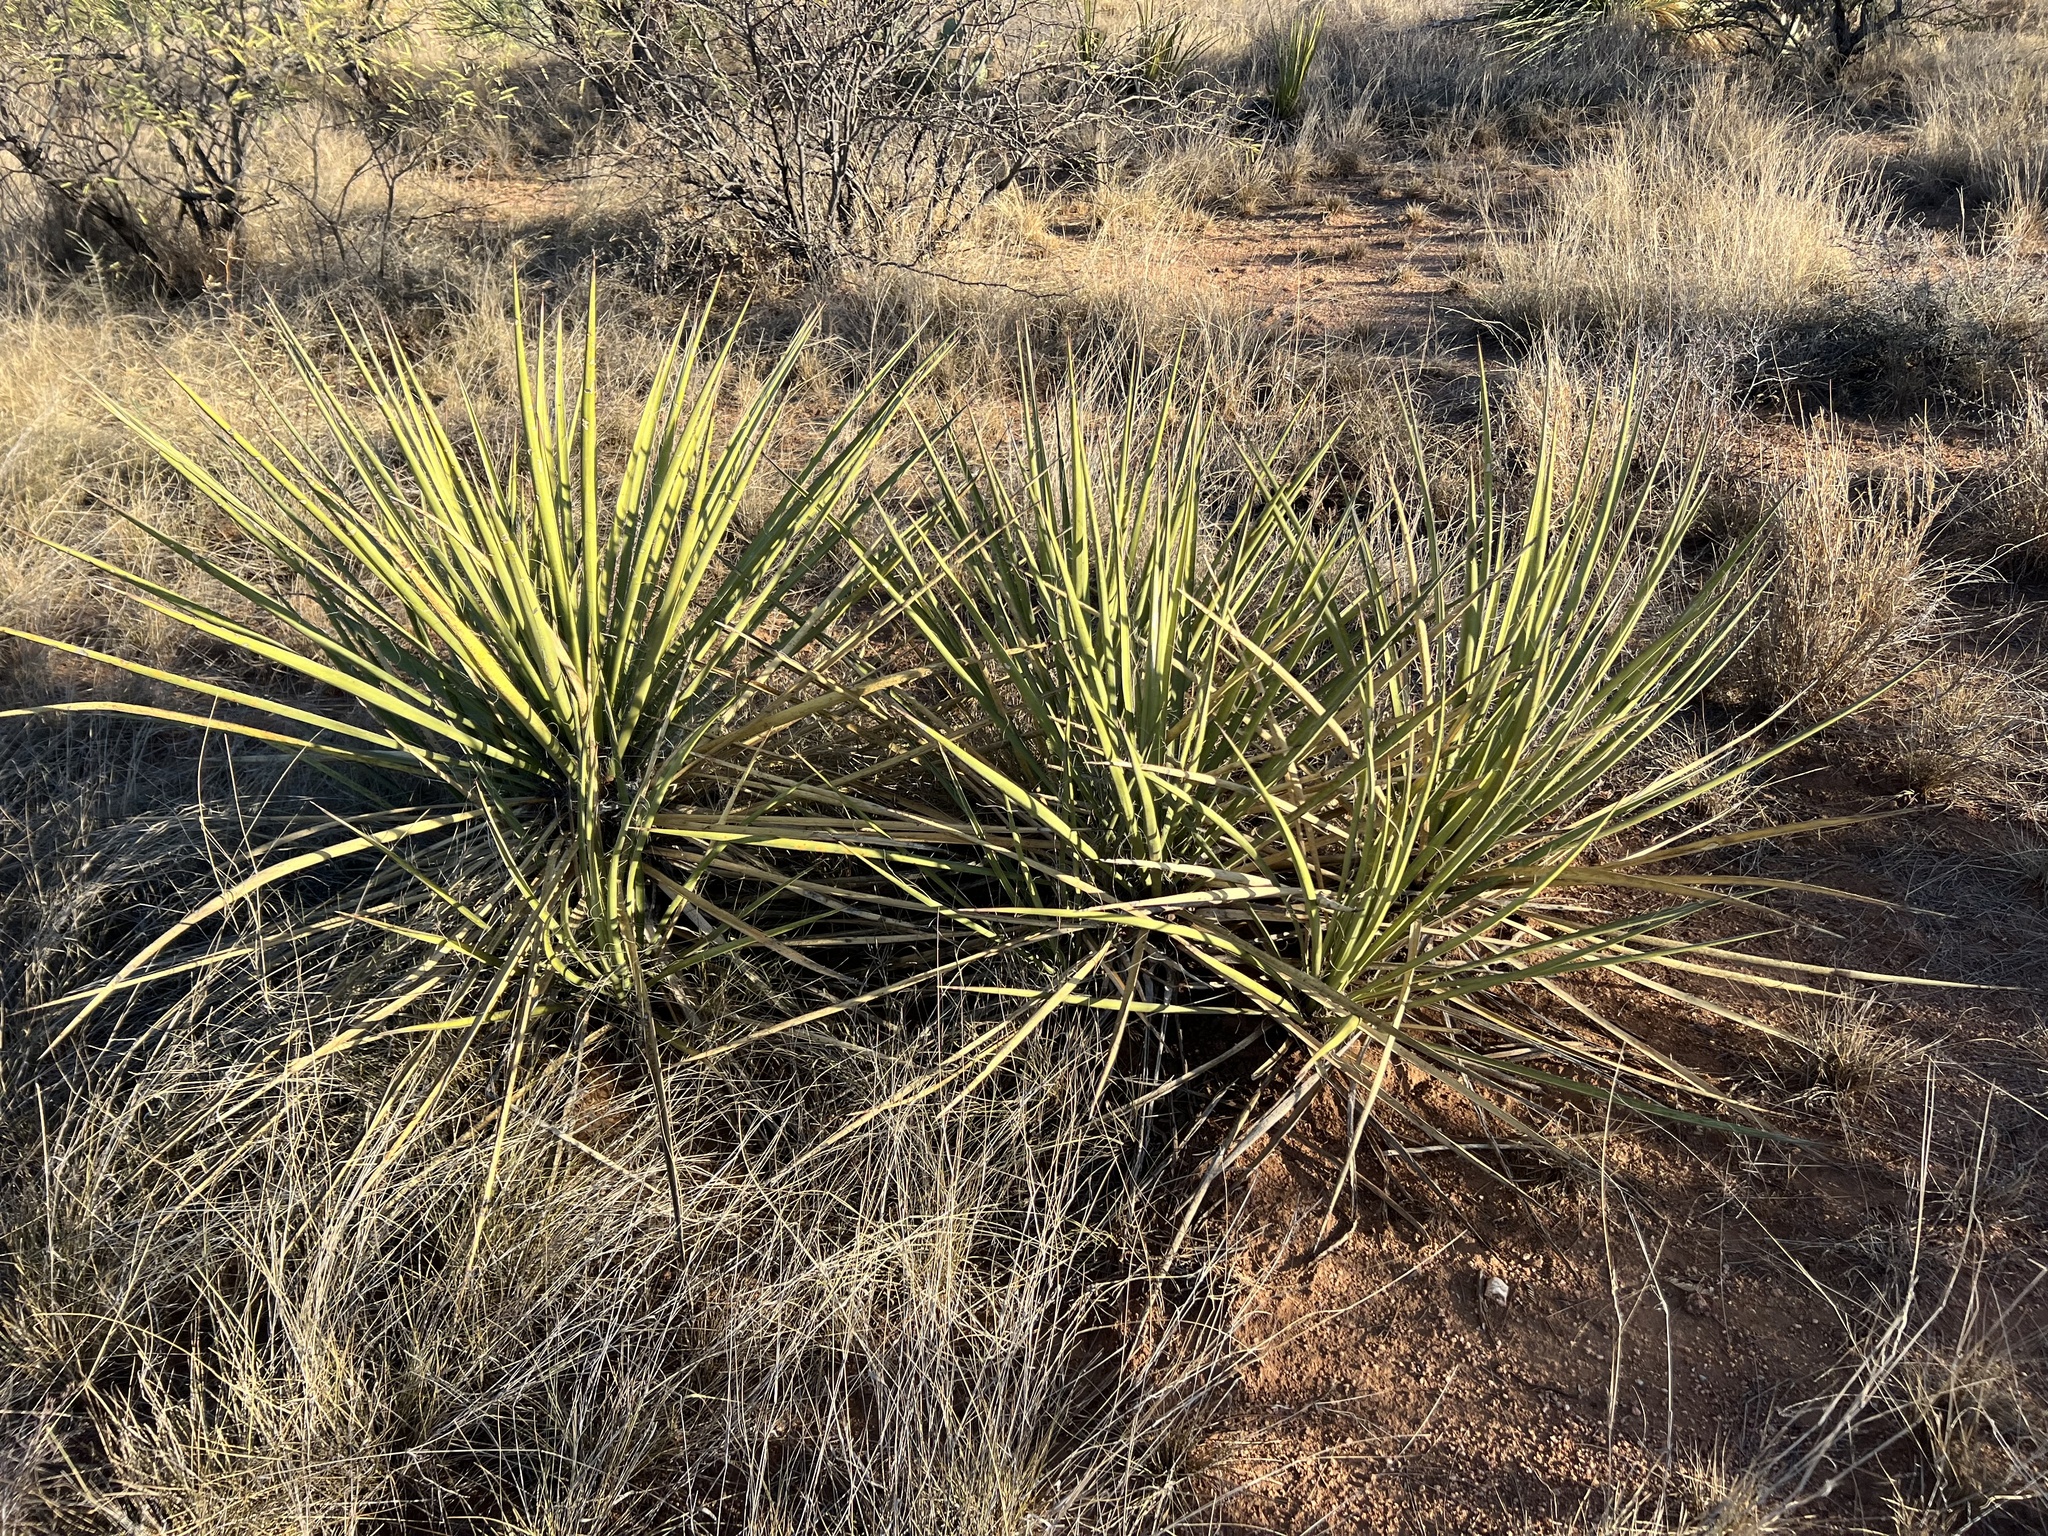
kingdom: Plantae
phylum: Tracheophyta
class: Liliopsida
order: Asparagales
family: Asparagaceae
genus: Yucca
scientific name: Yucca baccata
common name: Banana yucca
